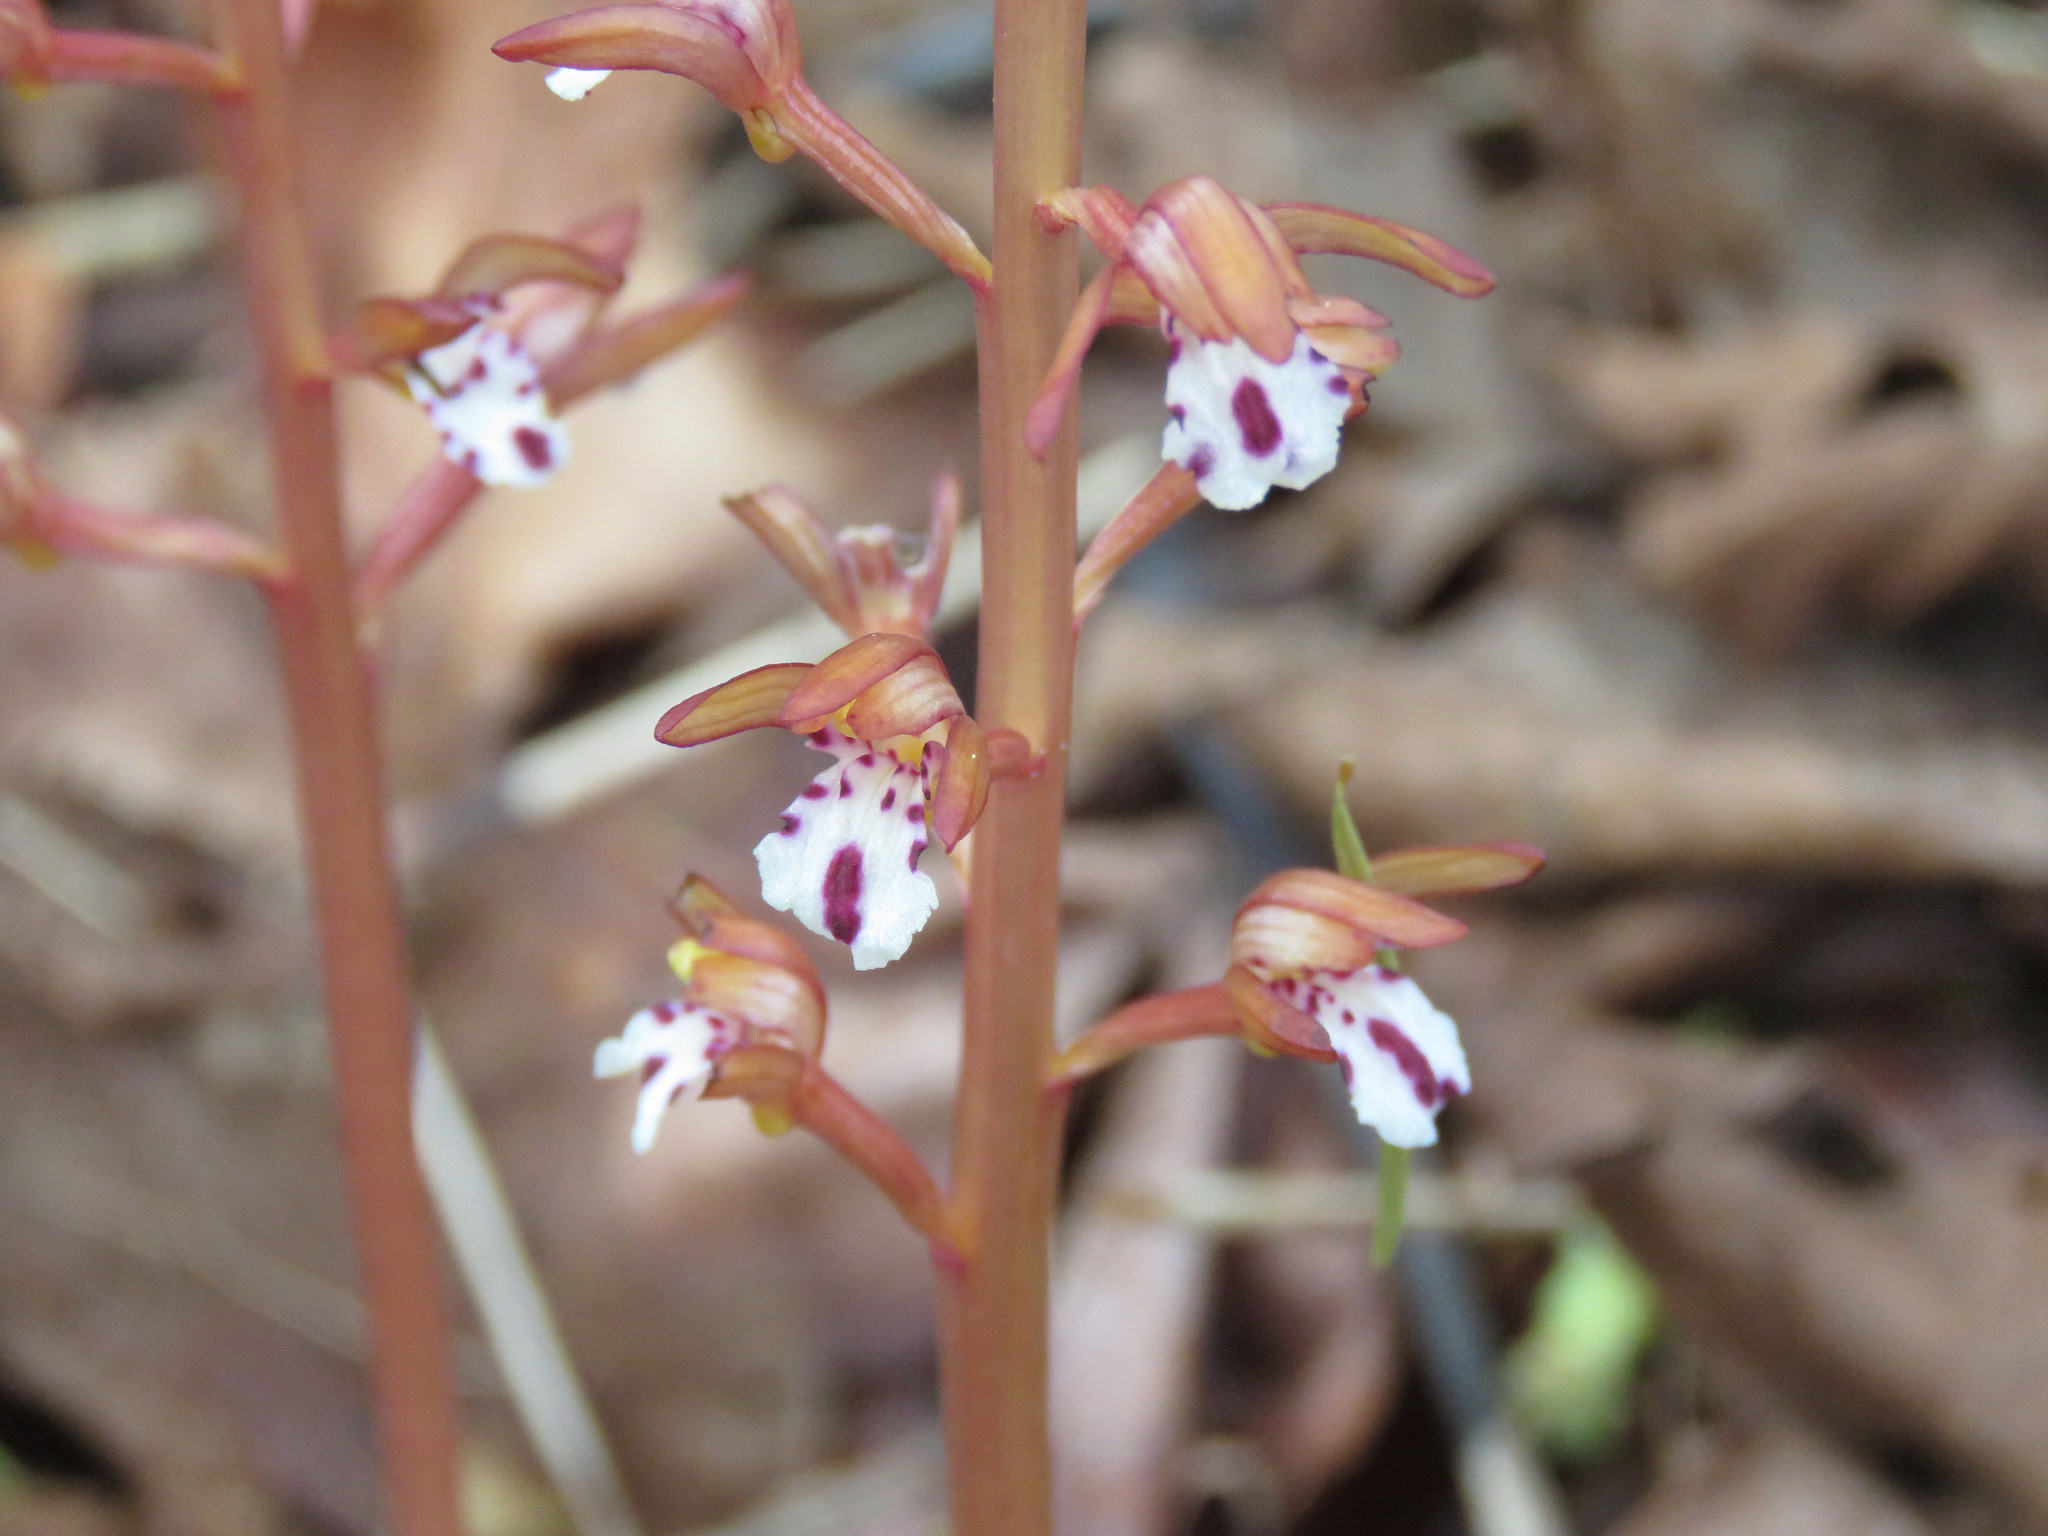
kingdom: Plantae
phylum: Tracheophyta
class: Liliopsida
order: Asparagales
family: Orchidaceae
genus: Corallorhiza
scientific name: Corallorhiza maculata
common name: Spotted coralroot
